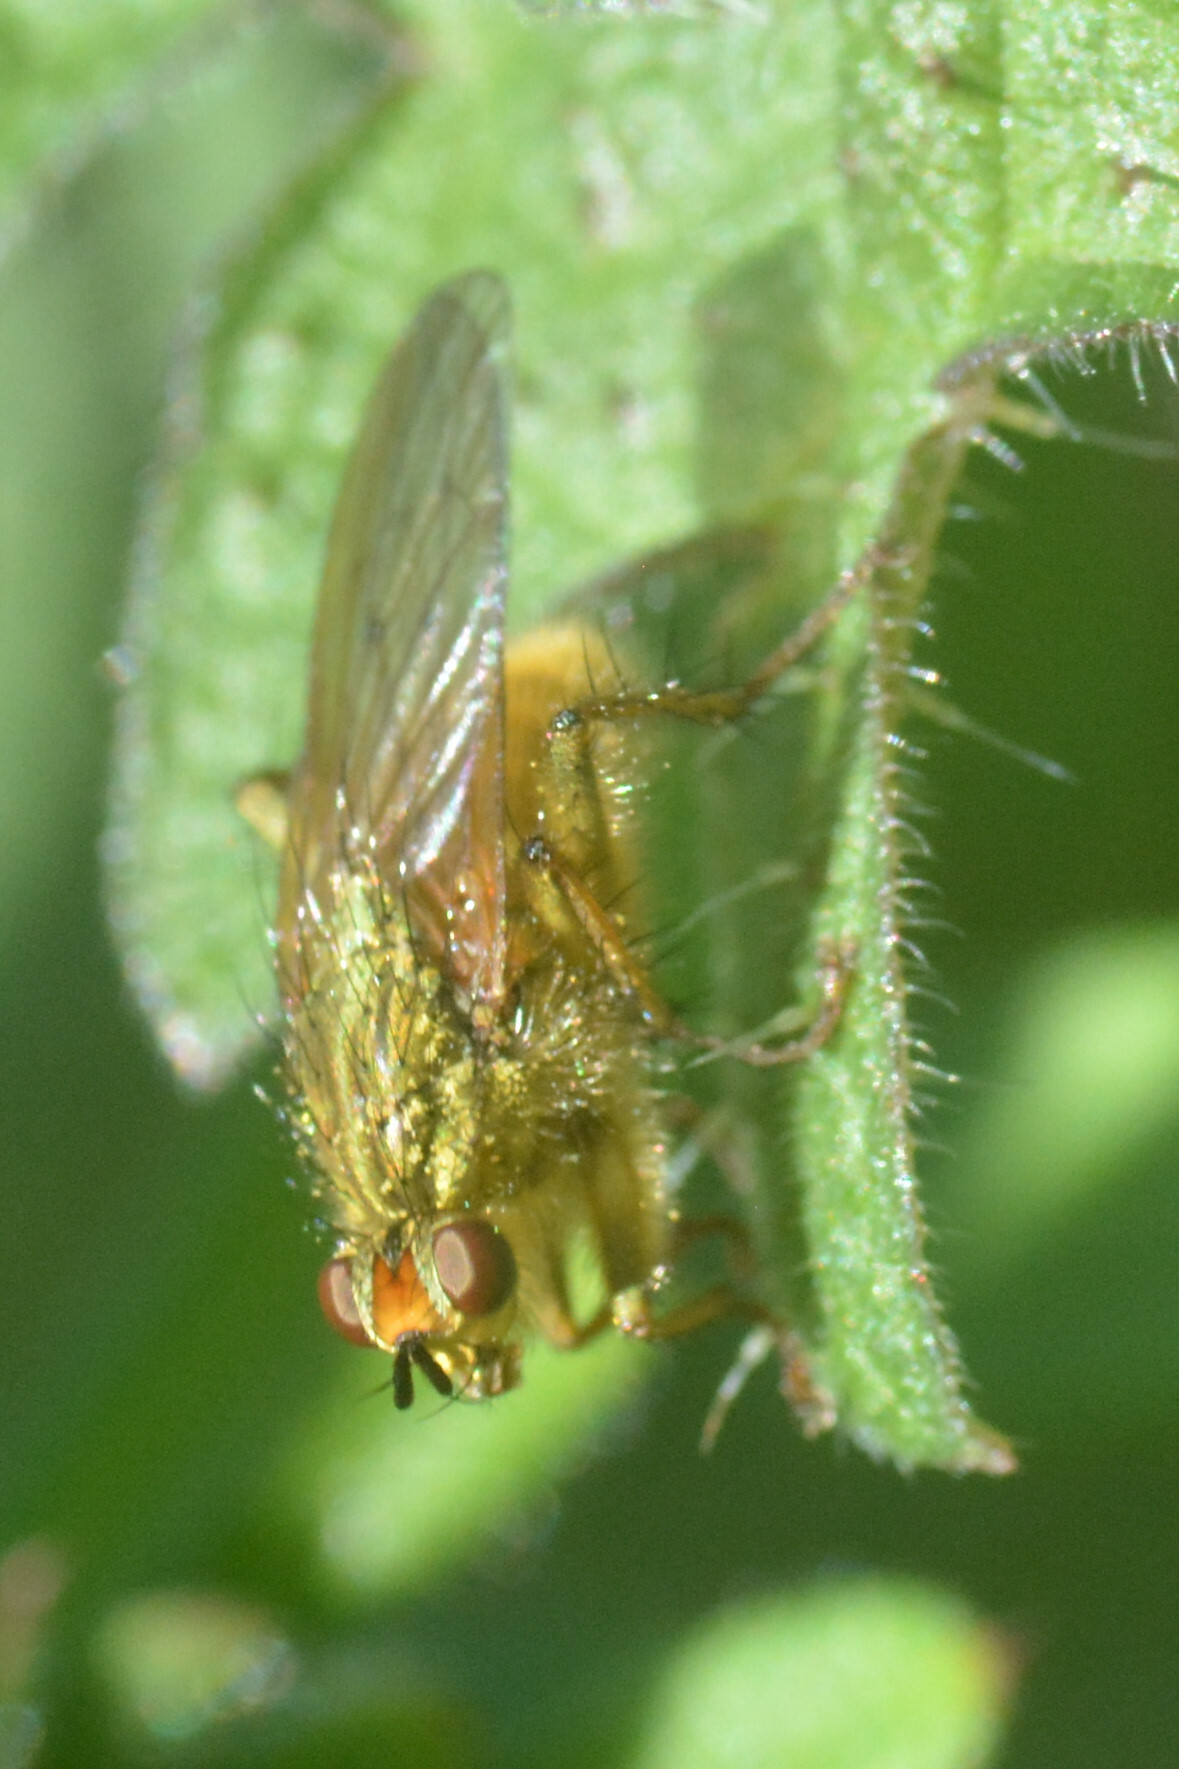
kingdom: Animalia
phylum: Arthropoda
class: Insecta
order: Diptera
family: Scathophagidae
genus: Scathophaga
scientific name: Scathophaga stercoraria
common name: Yellow dung fly
